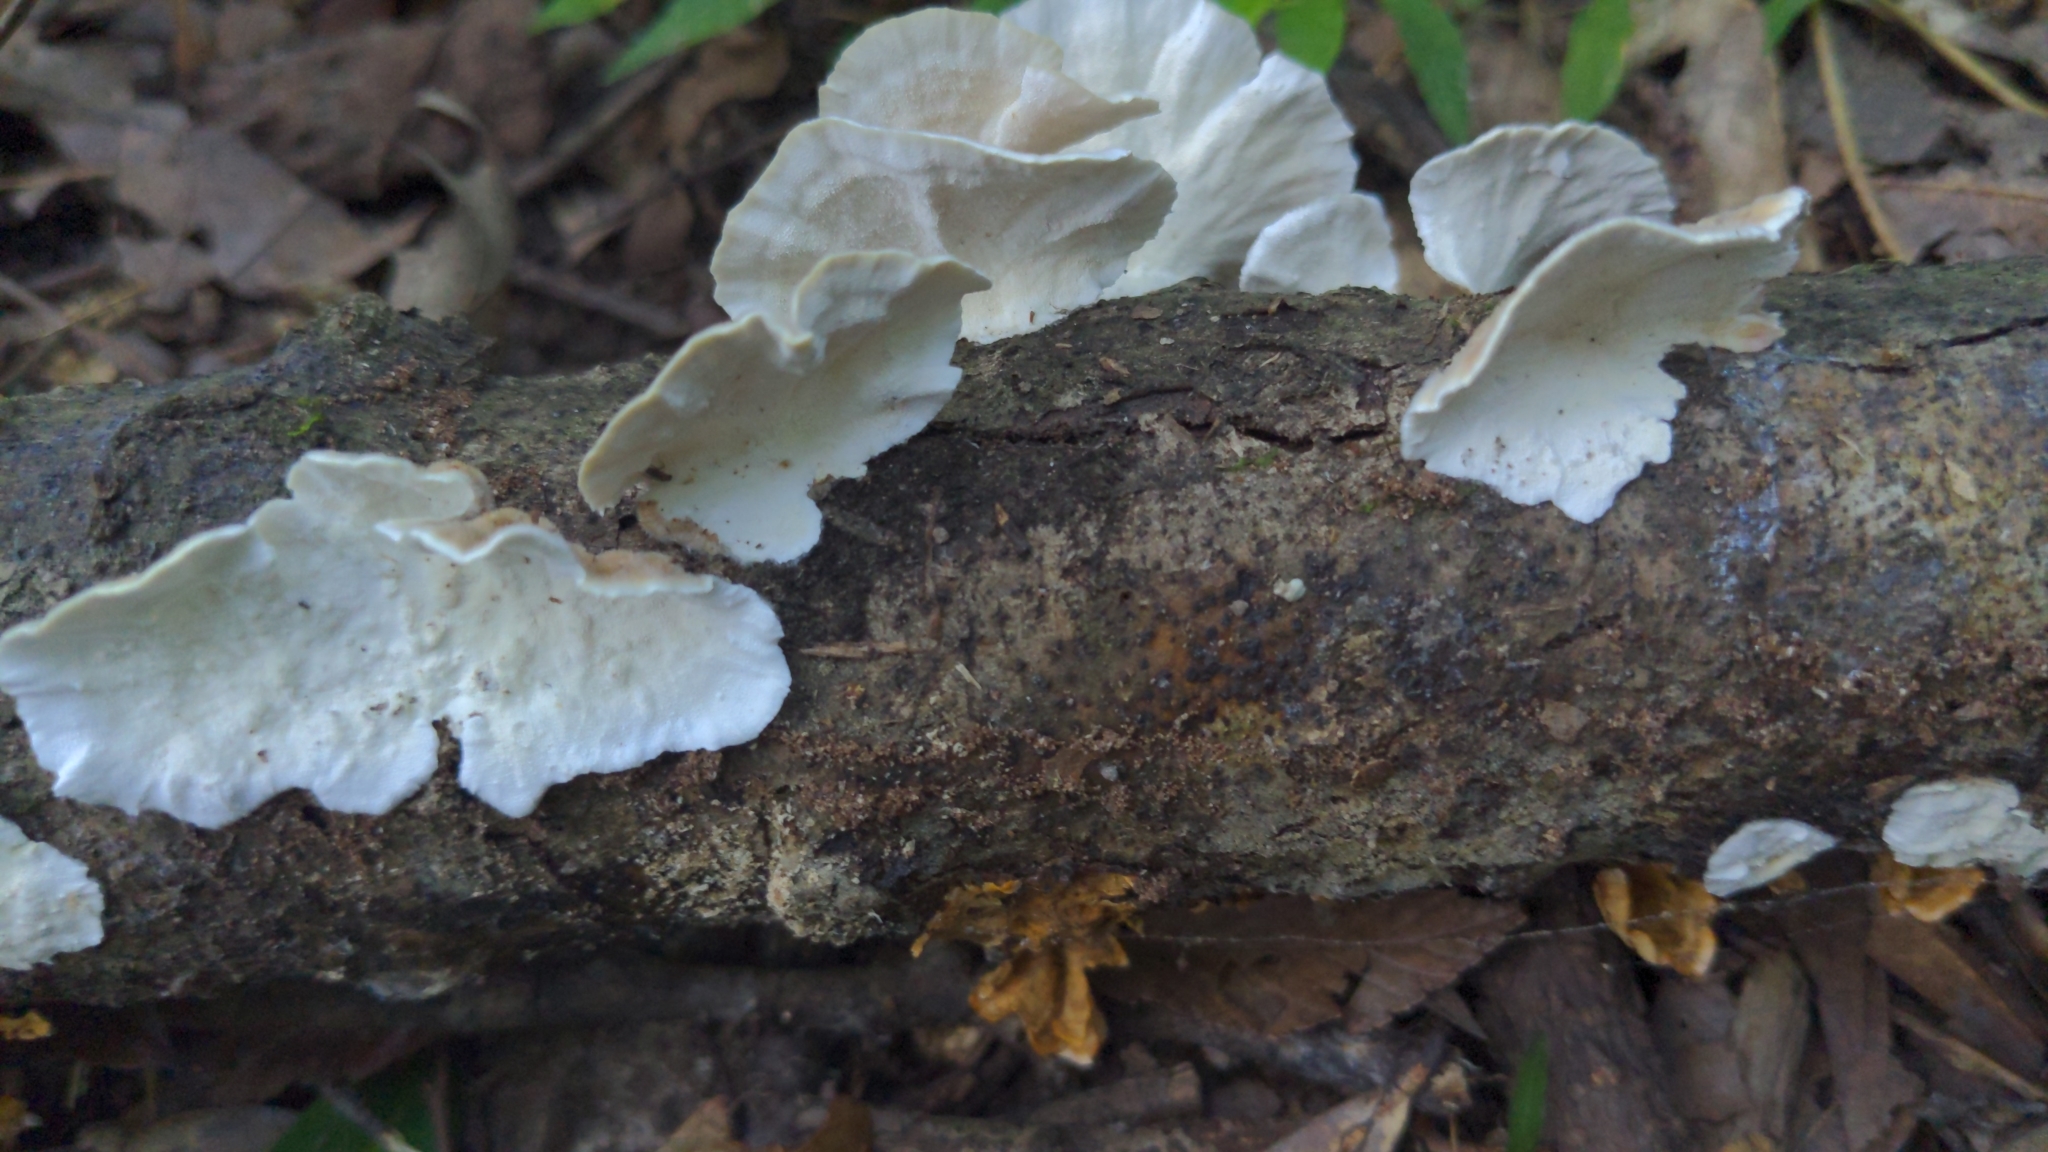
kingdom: Fungi
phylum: Basidiomycota
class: Agaricomycetes
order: Polyporales
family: Polyporaceae
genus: Trametes
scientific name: Trametes versicolor
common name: Turkeytail
